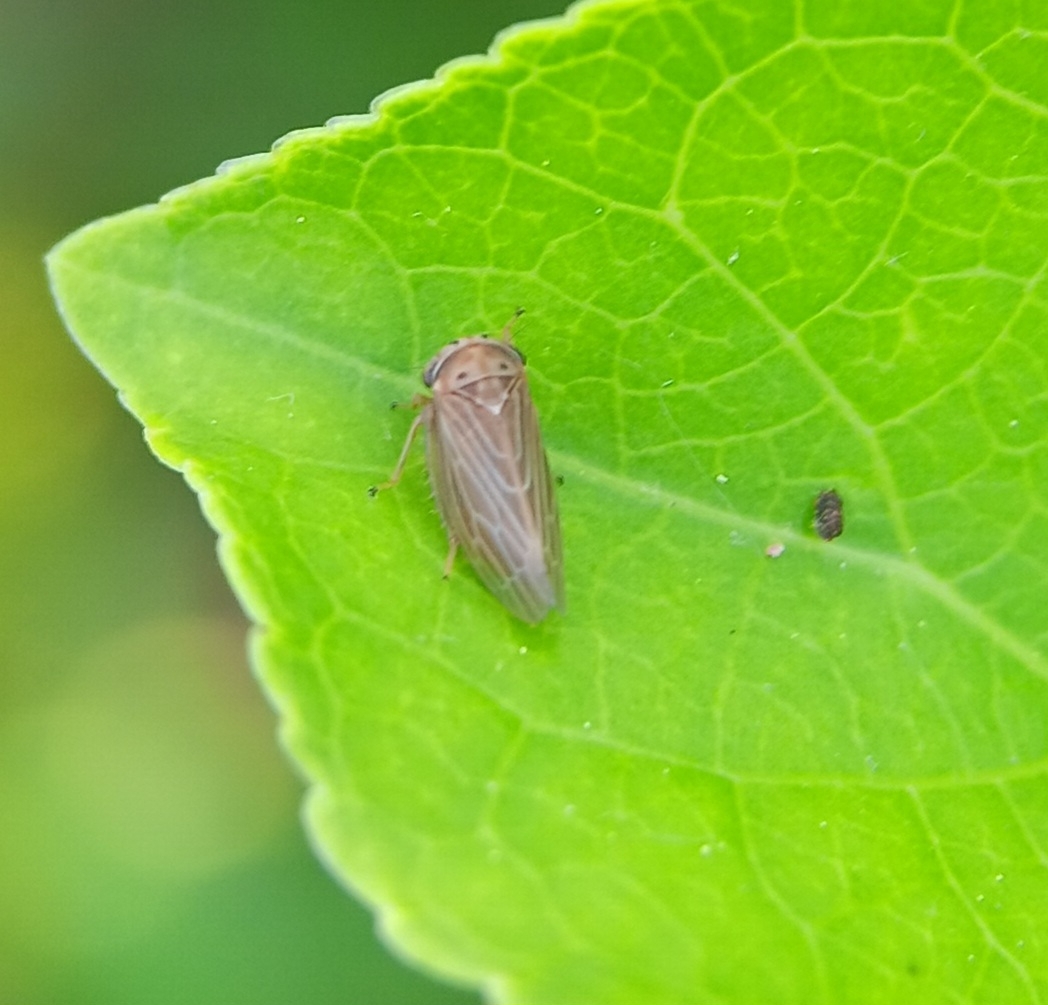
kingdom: Animalia
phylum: Arthropoda
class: Insecta
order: Hemiptera
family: Cicadellidae
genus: Agalliota
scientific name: Agalliota quadripunctata
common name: The four-spotted clover leafhopper
